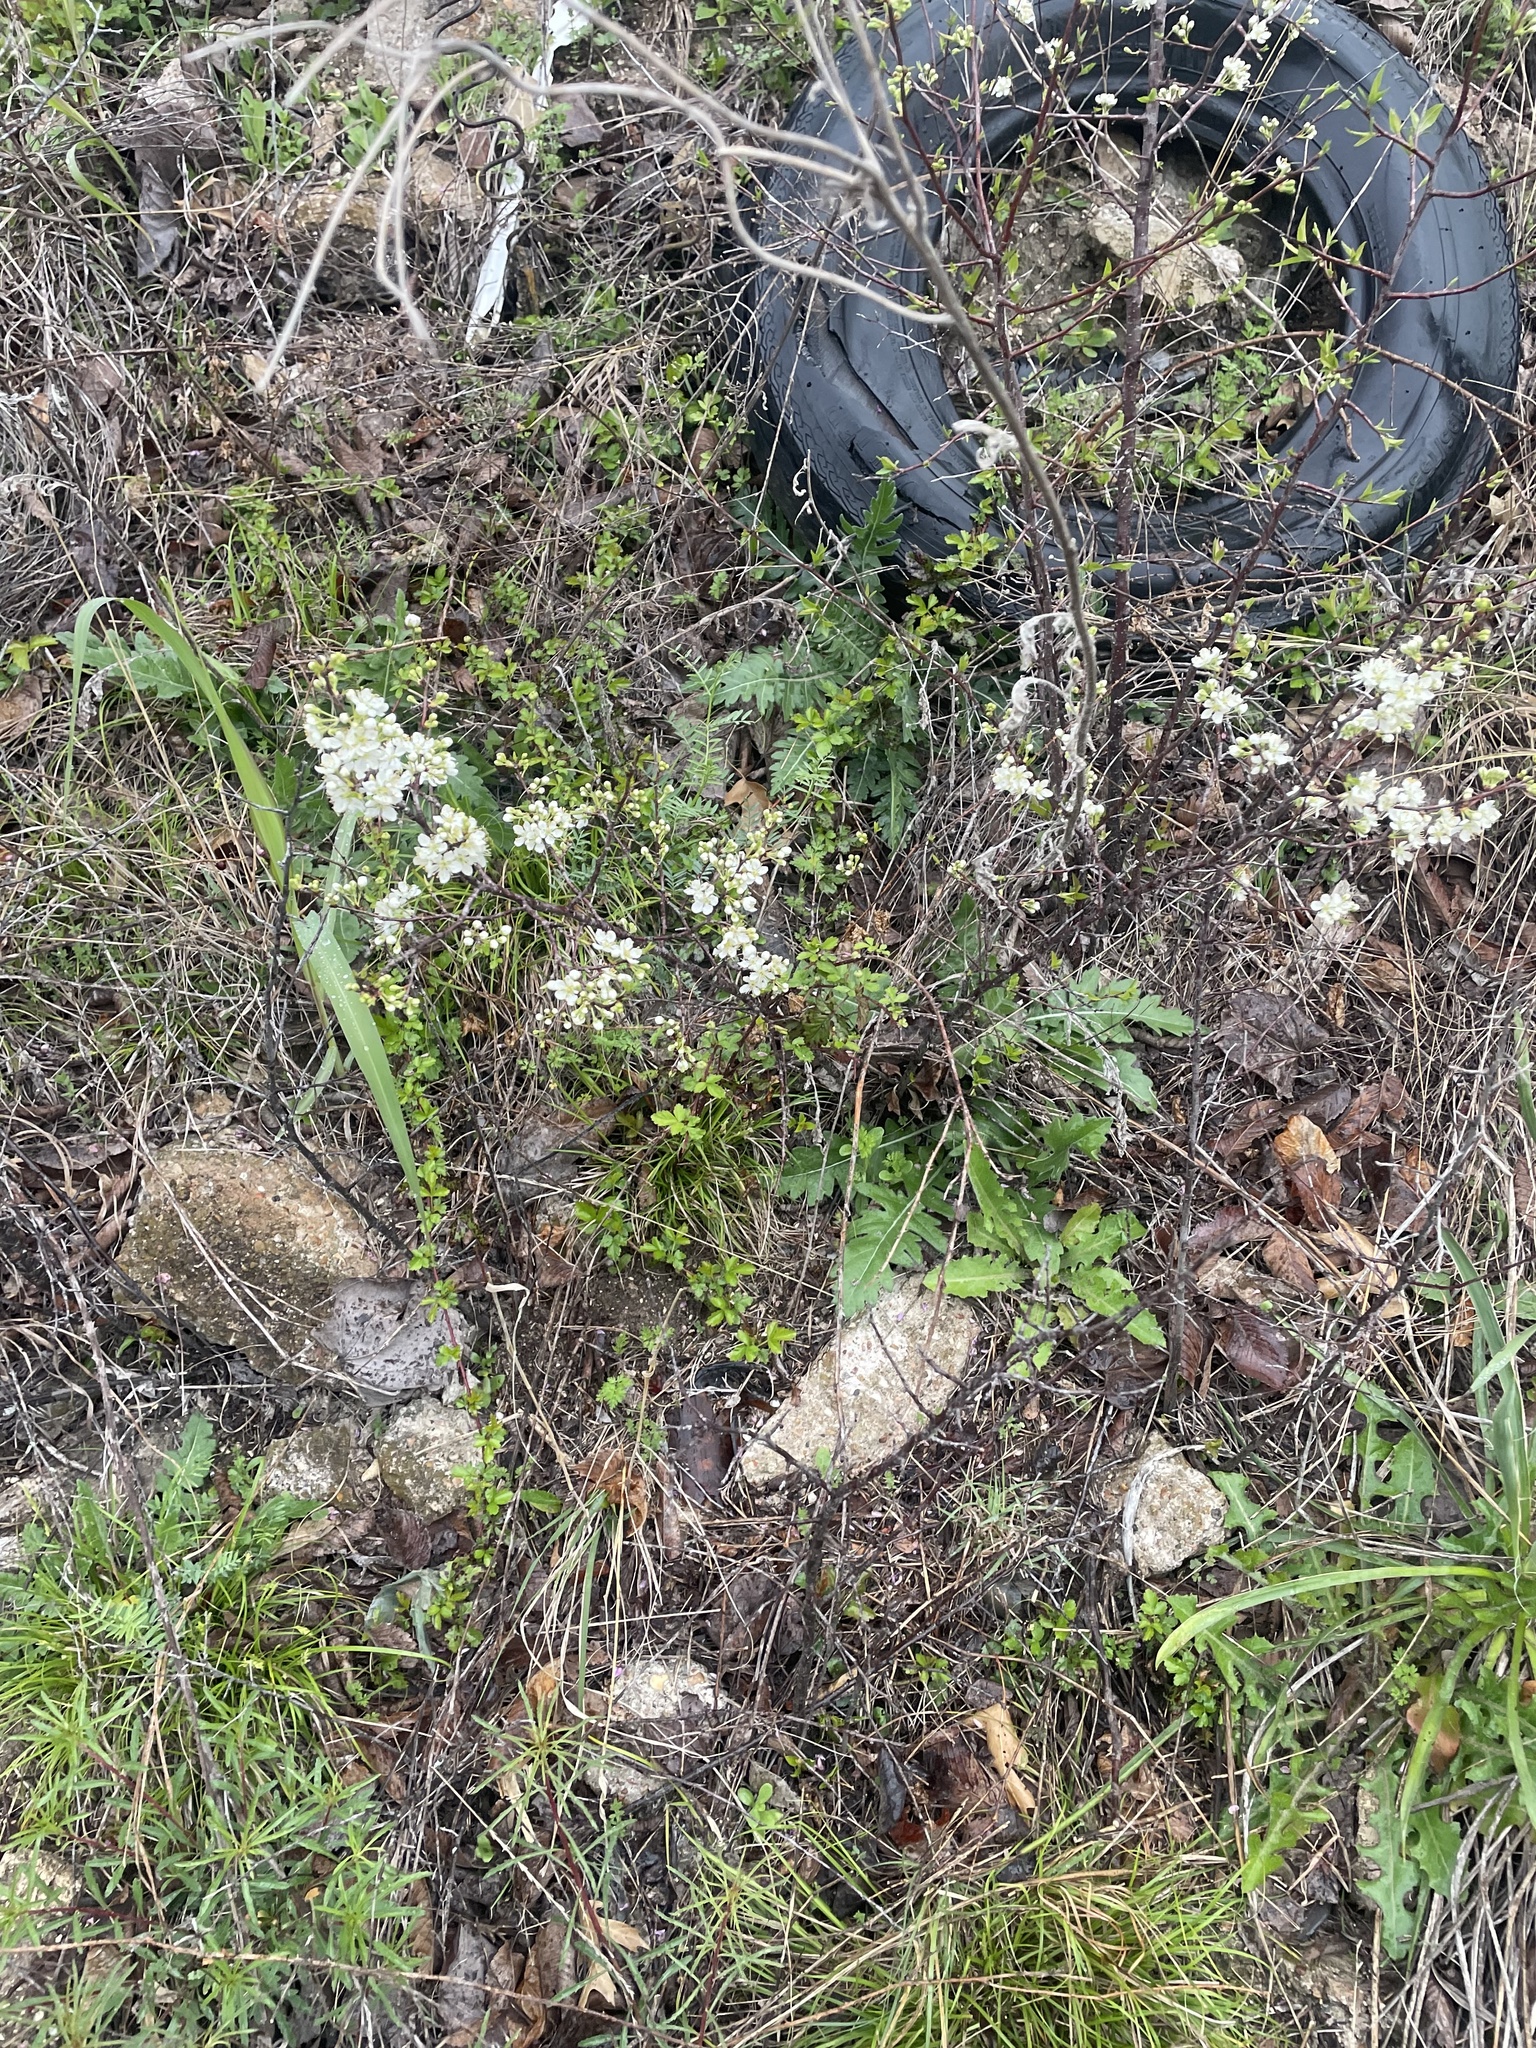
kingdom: Plantae
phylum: Tracheophyta
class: Magnoliopsida
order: Rosales
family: Rosaceae
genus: Prunus
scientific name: Prunus mexicana
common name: Mexican plum
